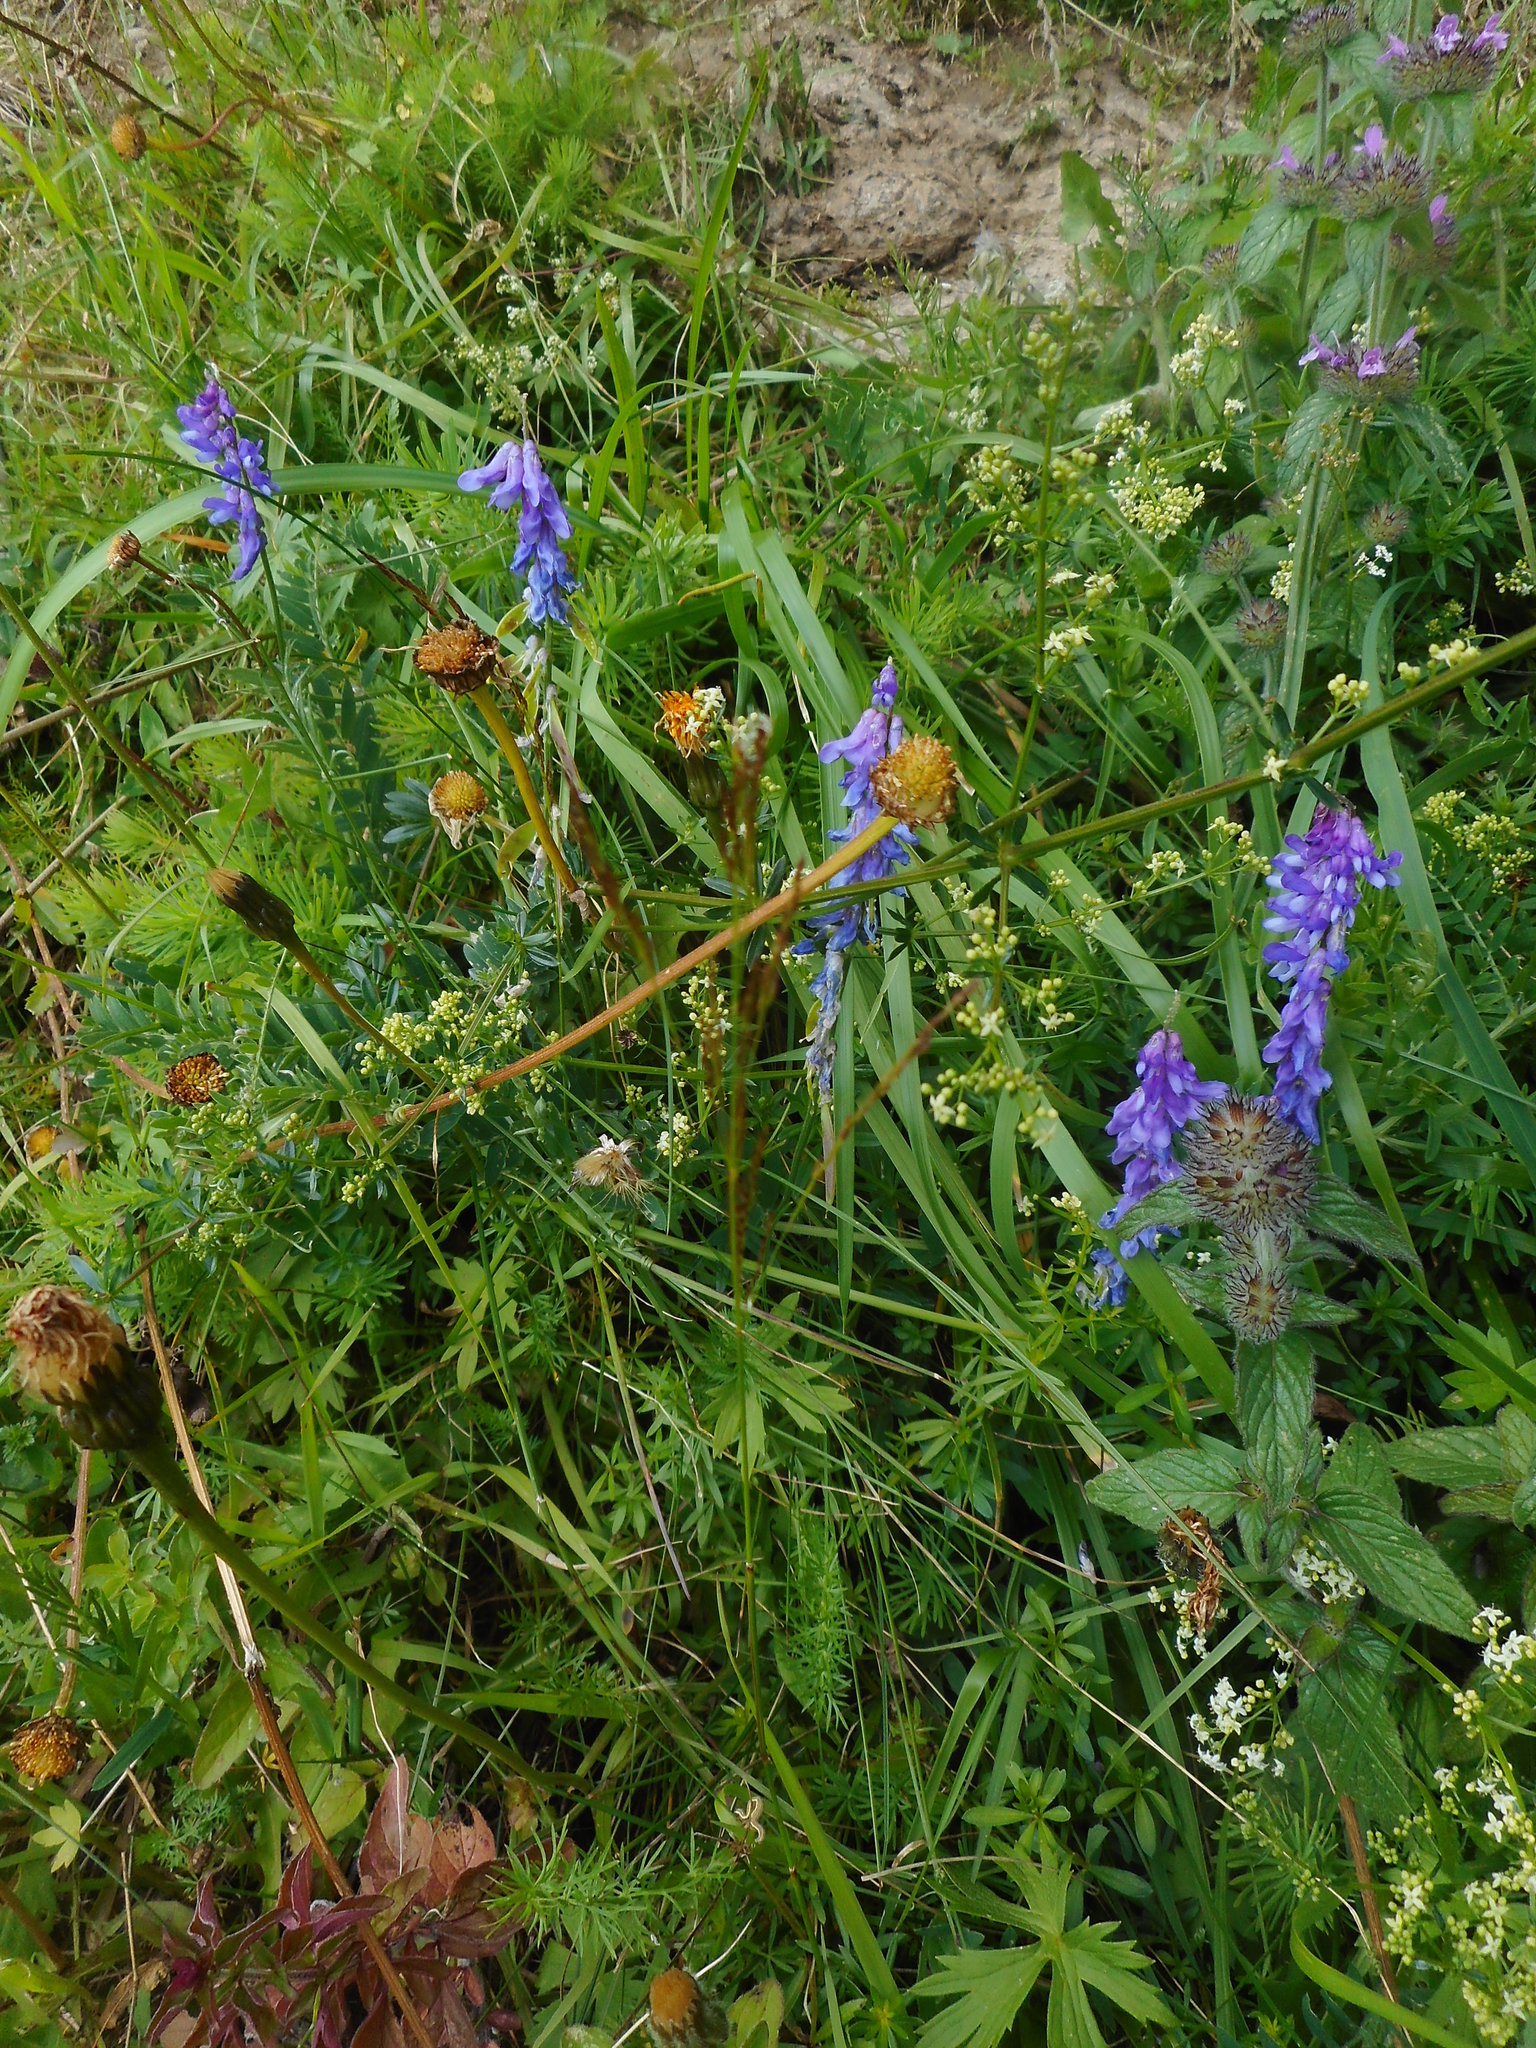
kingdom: Plantae
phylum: Tracheophyta
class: Magnoliopsida
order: Fabales
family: Fabaceae
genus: Vicia
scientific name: Vicia cracca
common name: Bird vetch
